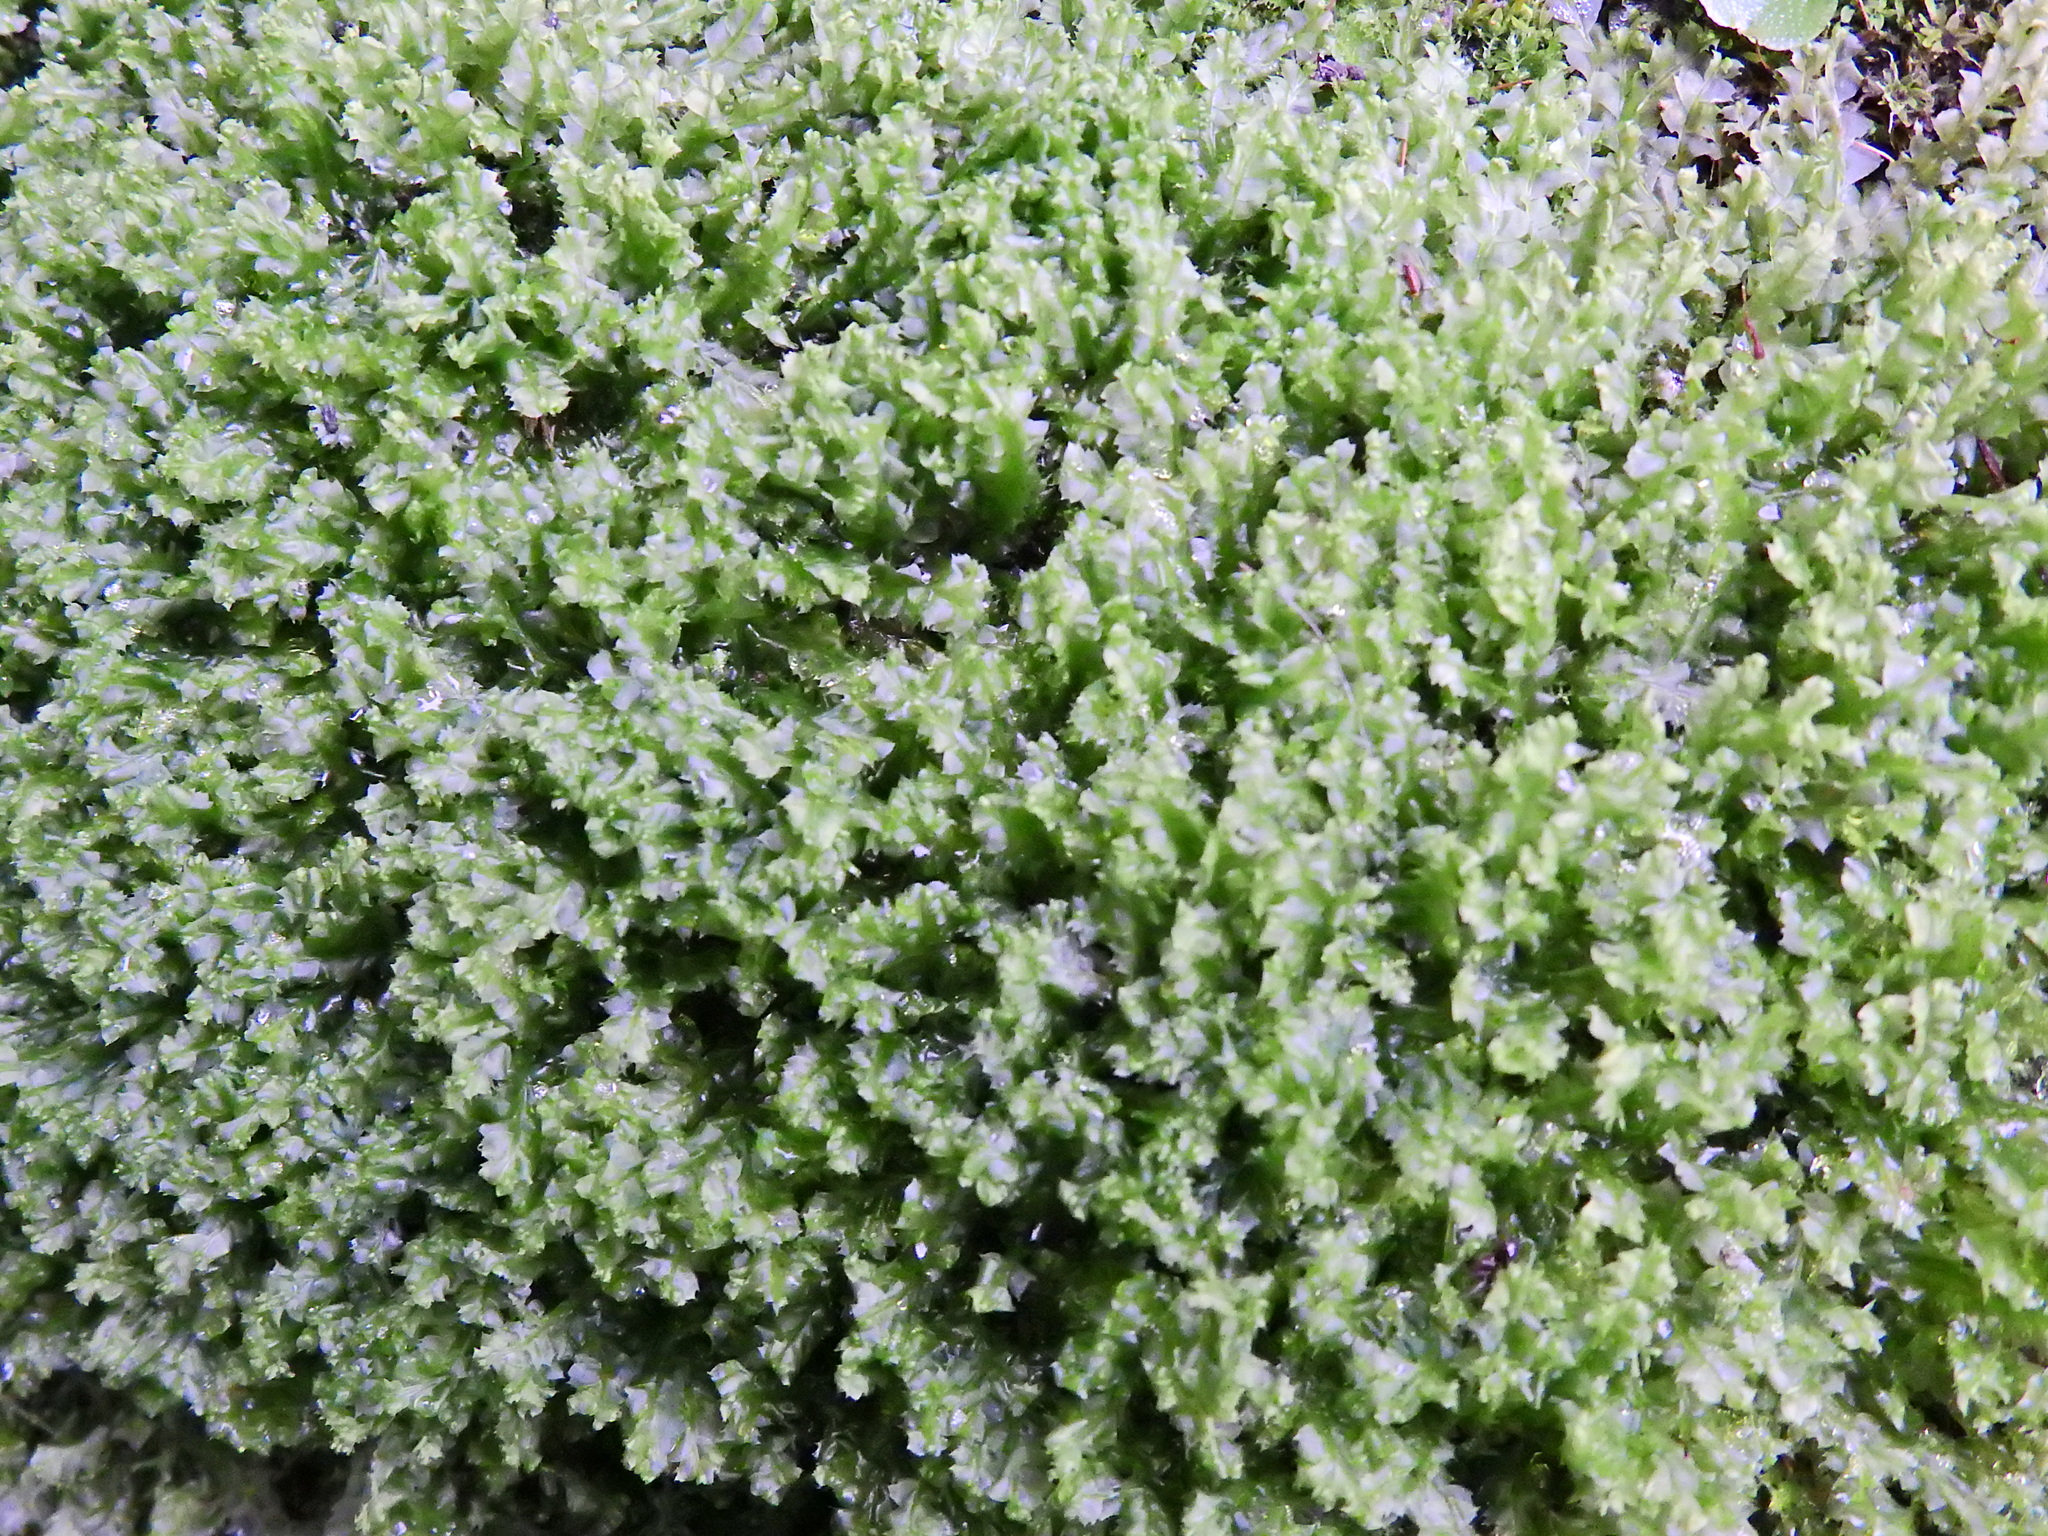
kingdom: Plantae
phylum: Marchantiophyta
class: Jungermanniopsida
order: Jungermanniales
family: Lophocoleaceae
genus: Lophocolea
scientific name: Lophocolea bidentata
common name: Bifid crestwort
